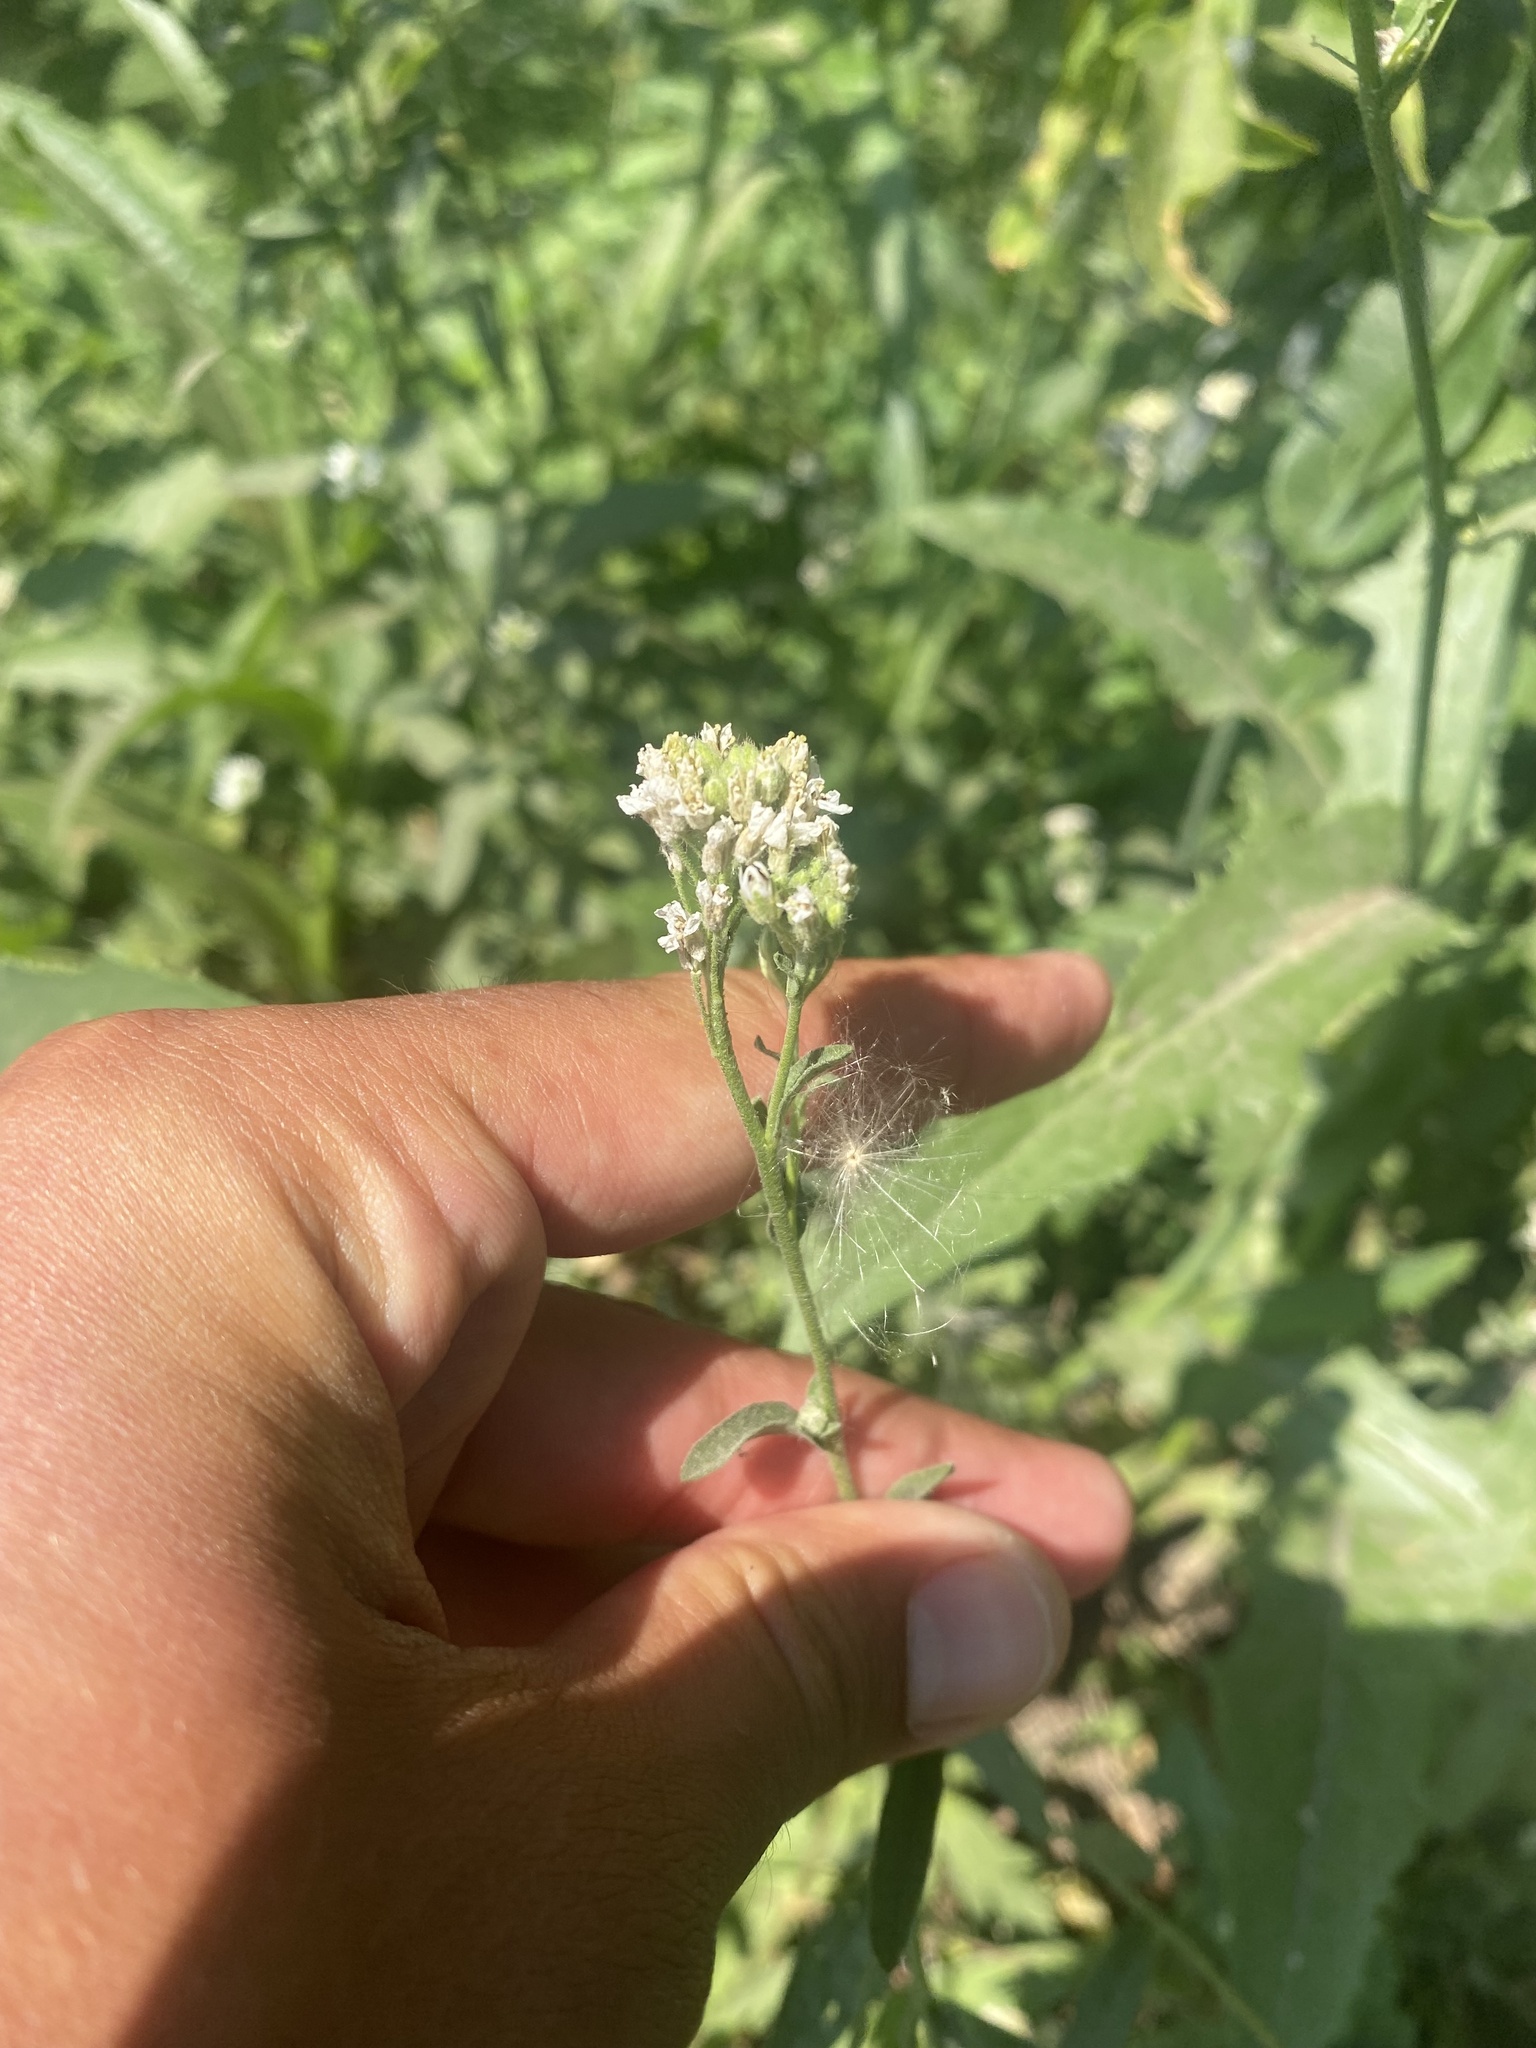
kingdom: Plantae
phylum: Tracheophyta
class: Magnoliopsida
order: Brassicales
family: Brassicaceae
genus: Berteroa
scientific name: Berteroa incana
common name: Hoary alison
